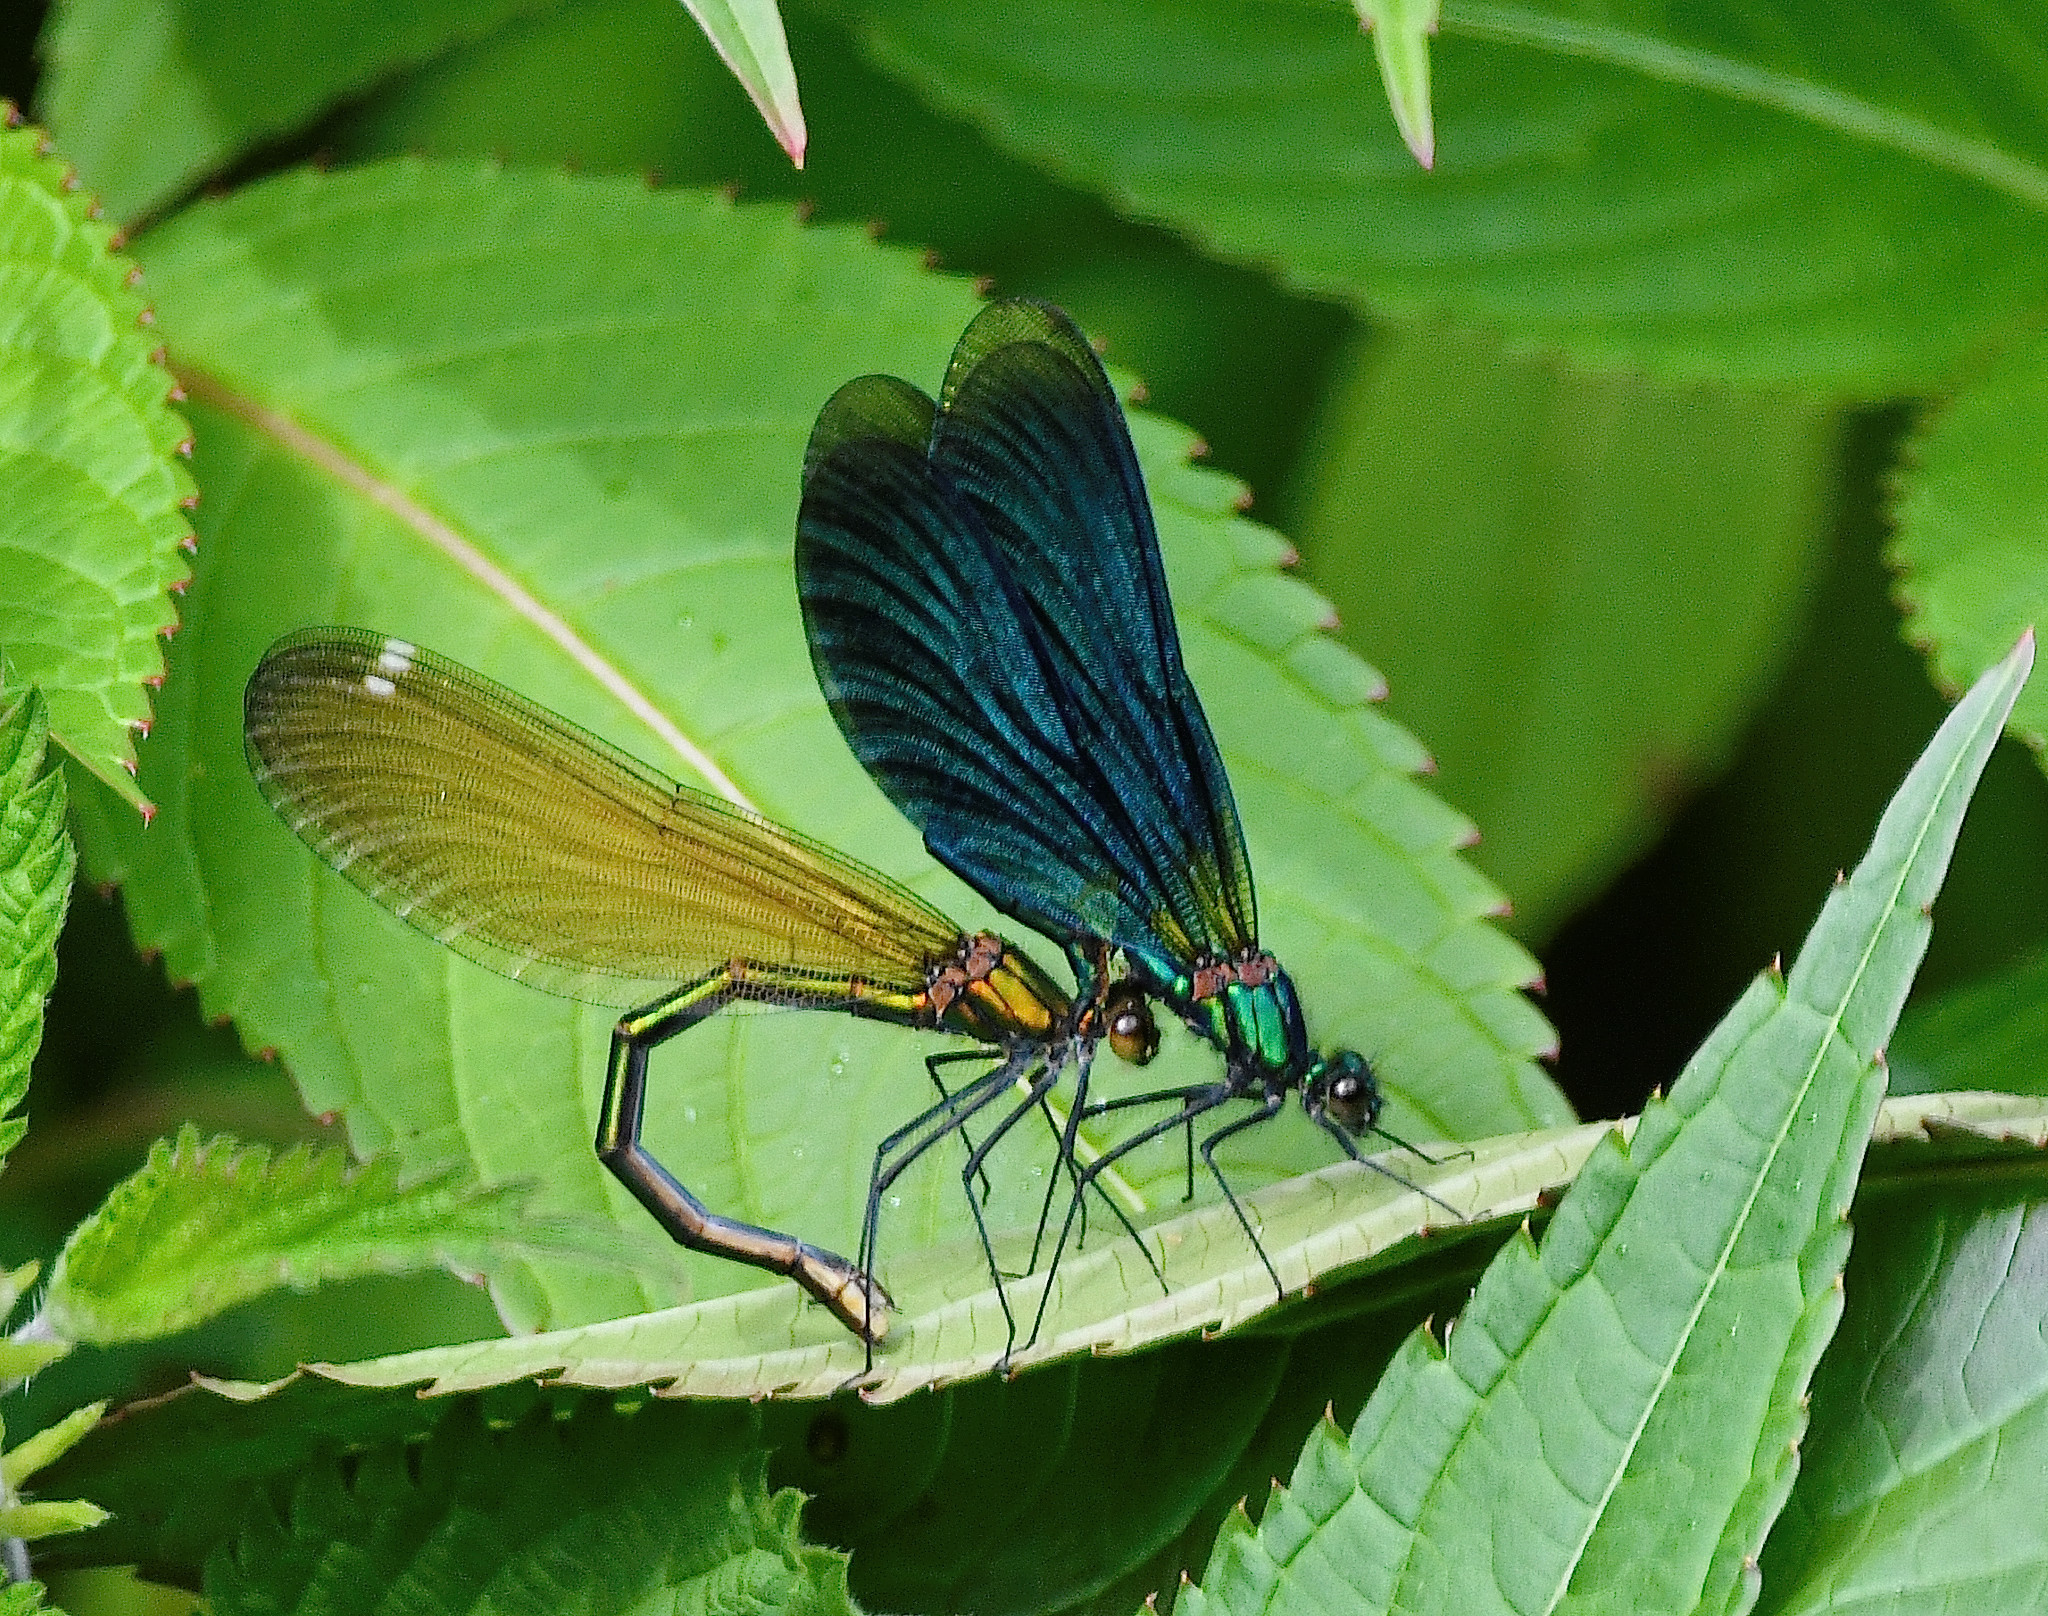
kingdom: Animalia
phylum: Arthropoda
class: Insecta
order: Odonata
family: Calopterygidae
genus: Calopteryx
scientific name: Calopteryx virgo
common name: Beautiful demoiselle
